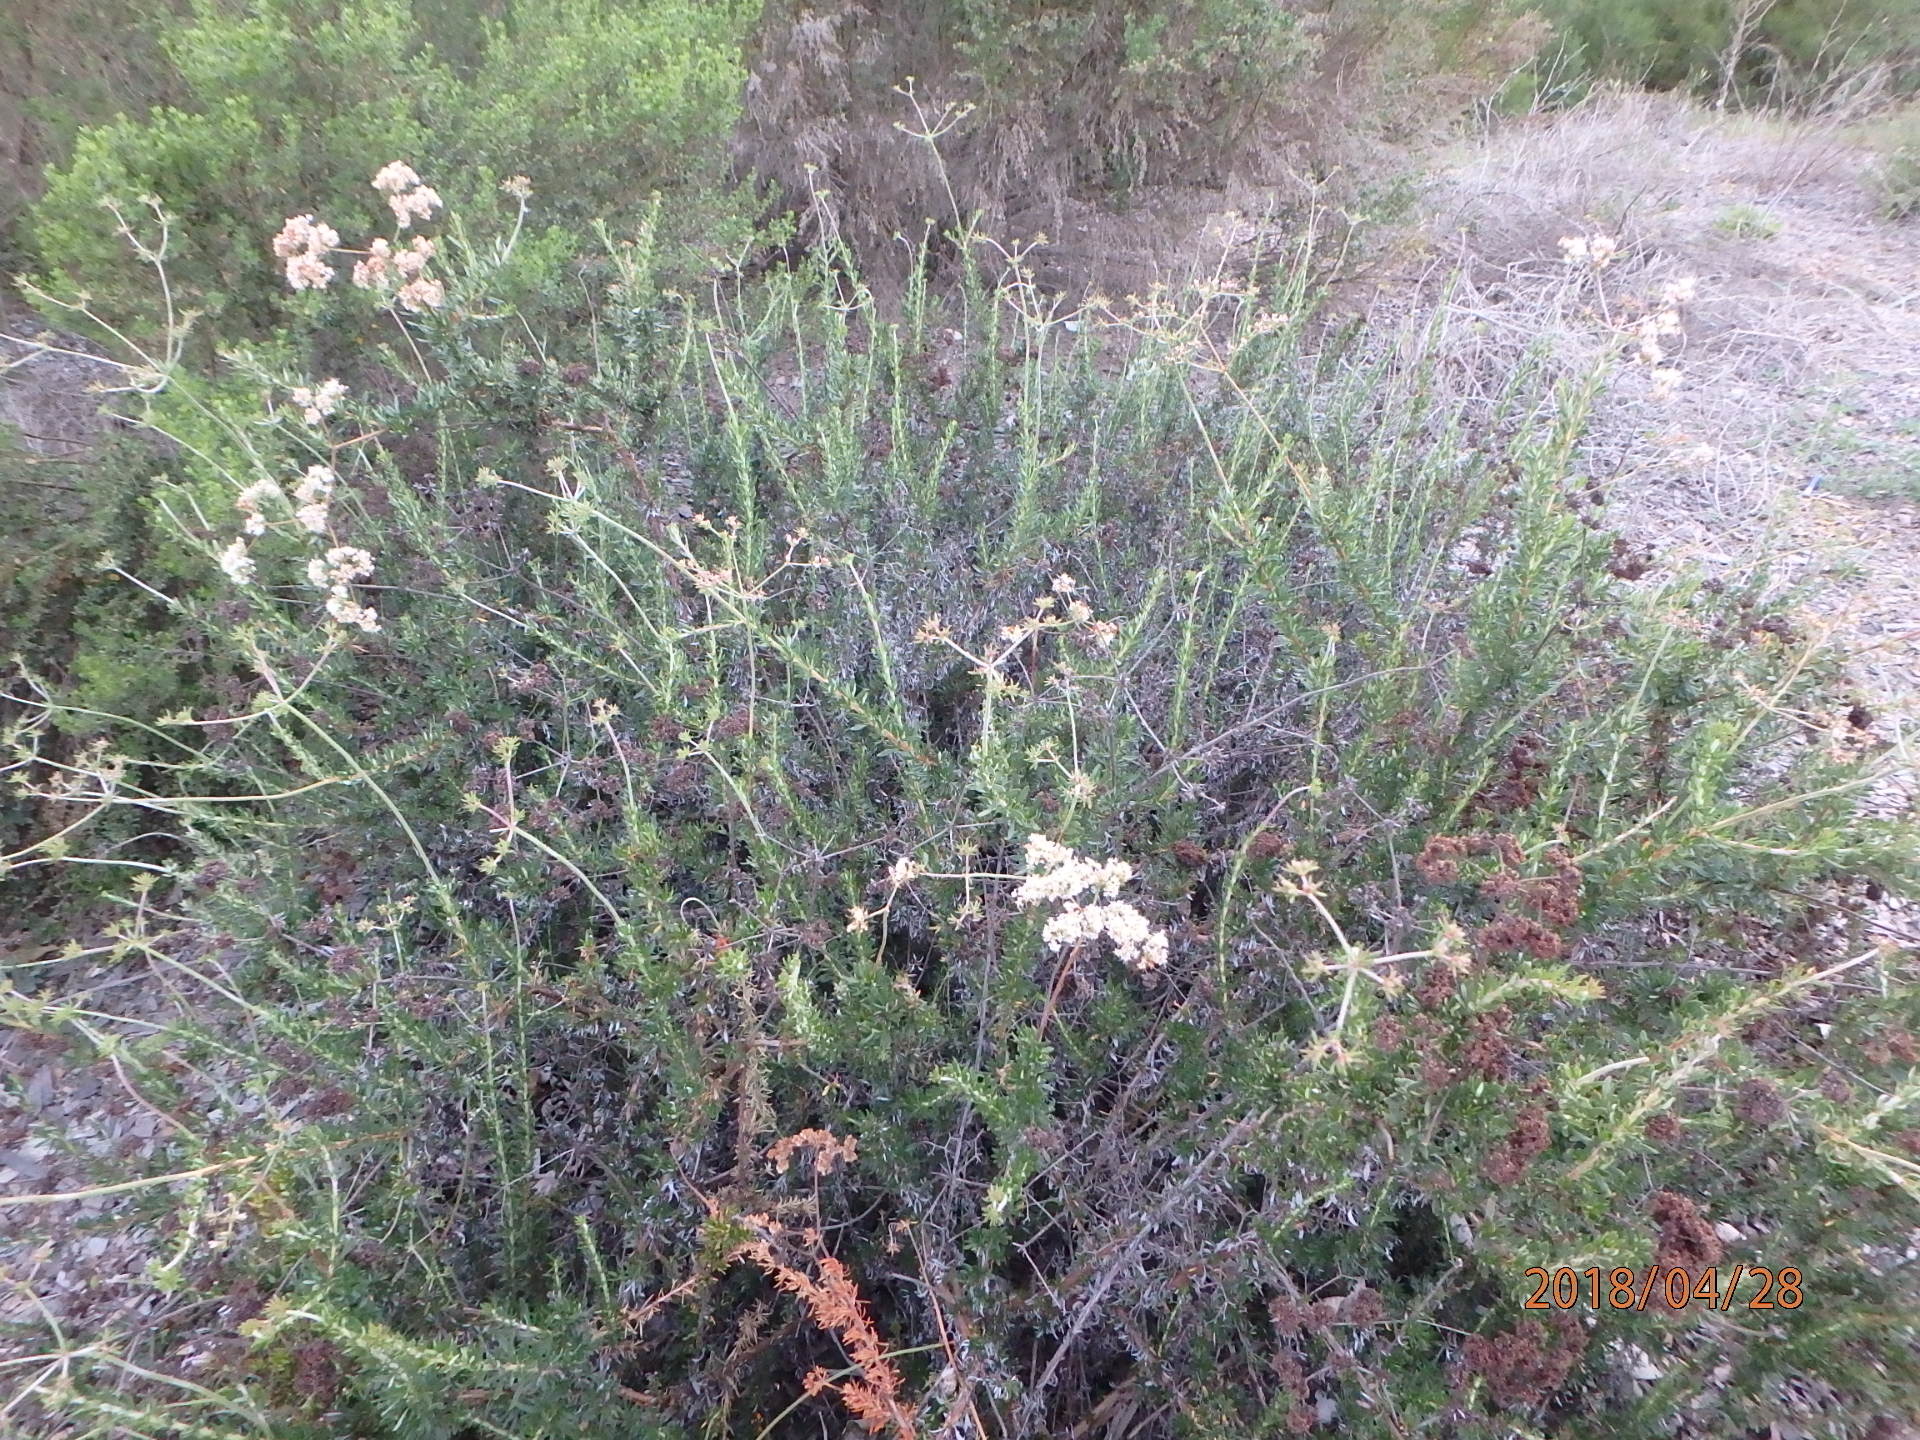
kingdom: Plantae
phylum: Tracheophyta
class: Magnoliopsida
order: Caryophyllales
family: Polygonaceae
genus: Eriogonum
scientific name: Eriogonum fasciculatum
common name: California wild buckwheat
